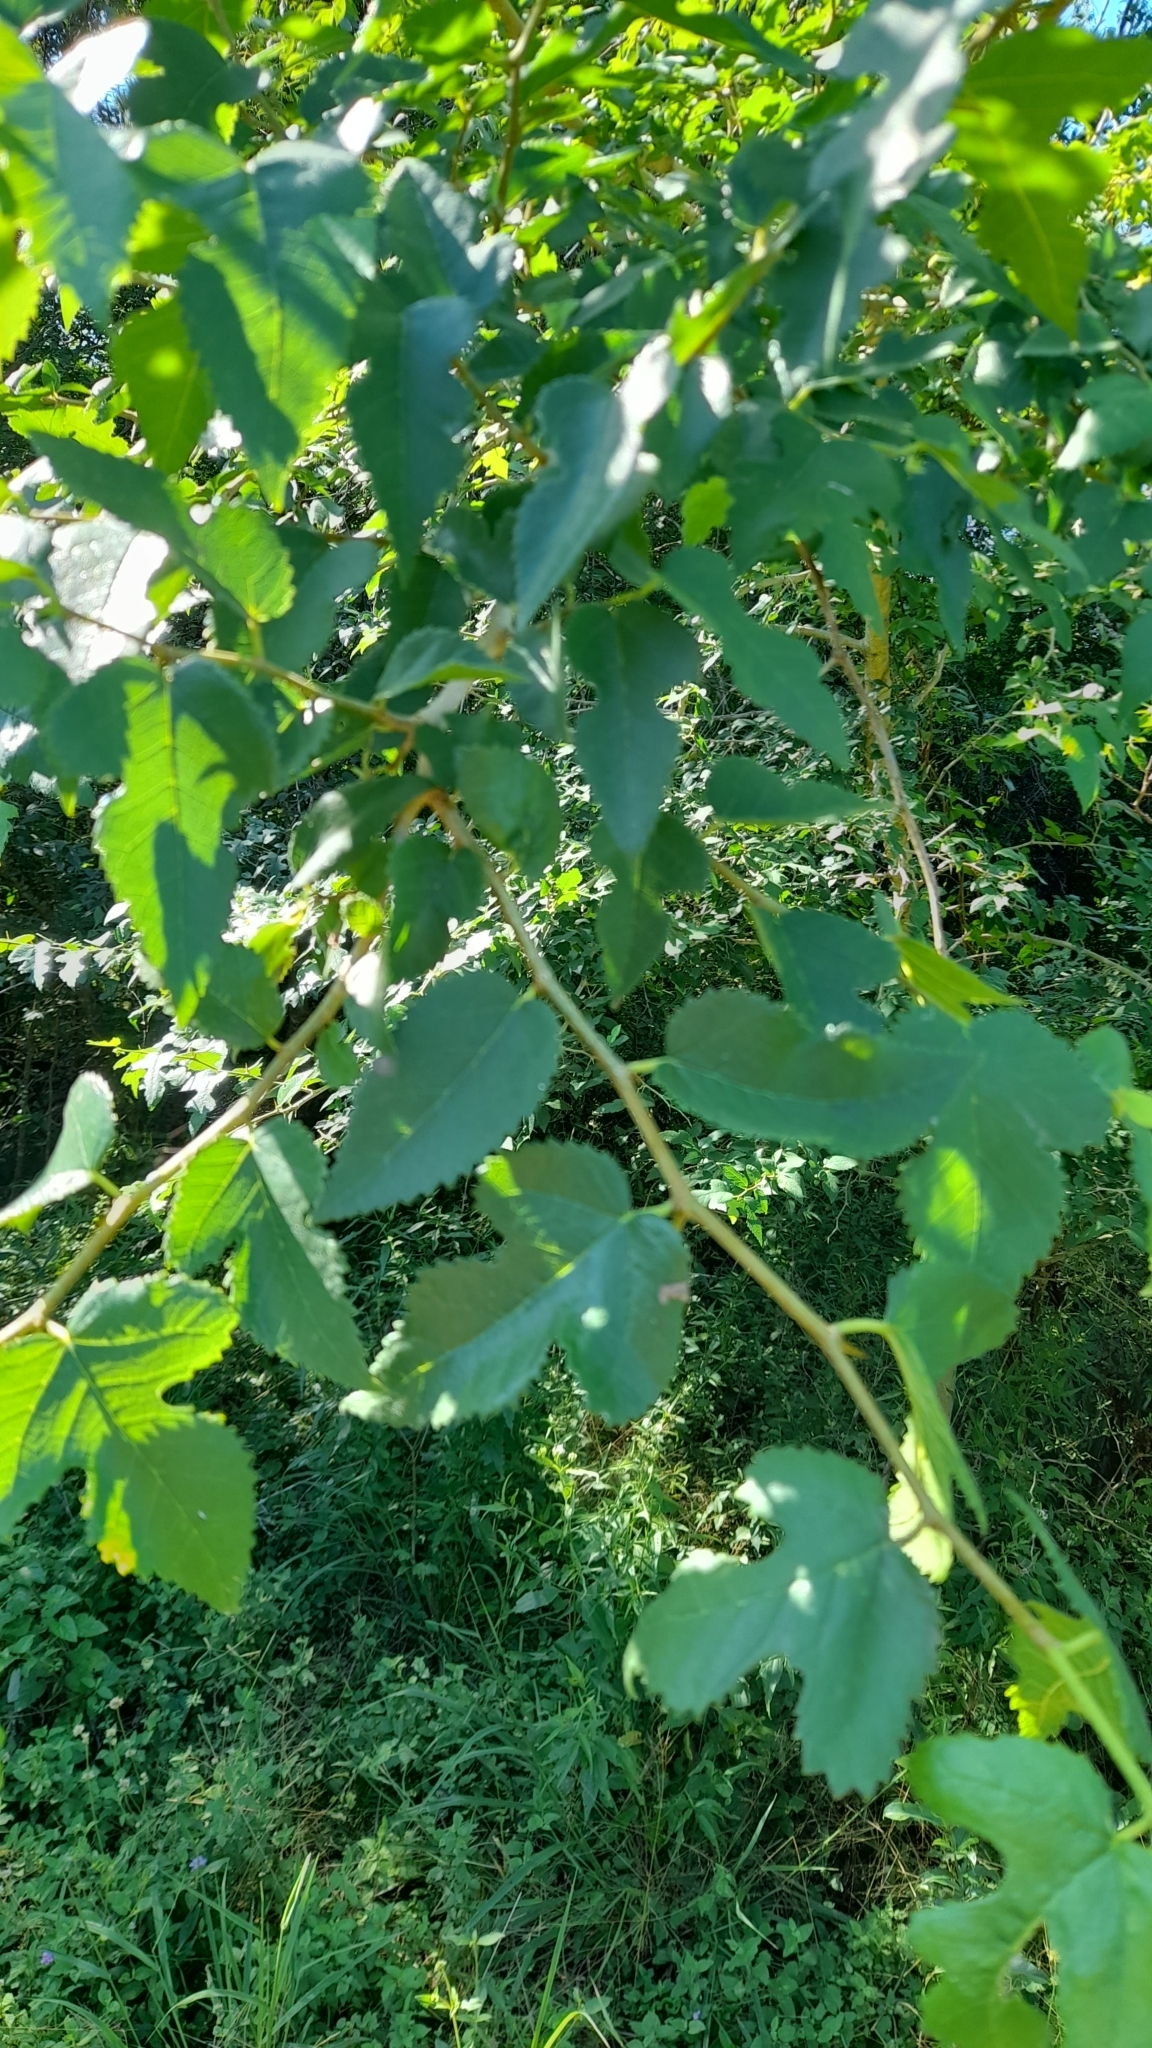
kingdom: Plantae
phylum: Tracheophyta
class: Magnoliopsida
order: Rosales
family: Moraceae
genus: Maclura
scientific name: Maclura tinctoria
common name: Old fustic
